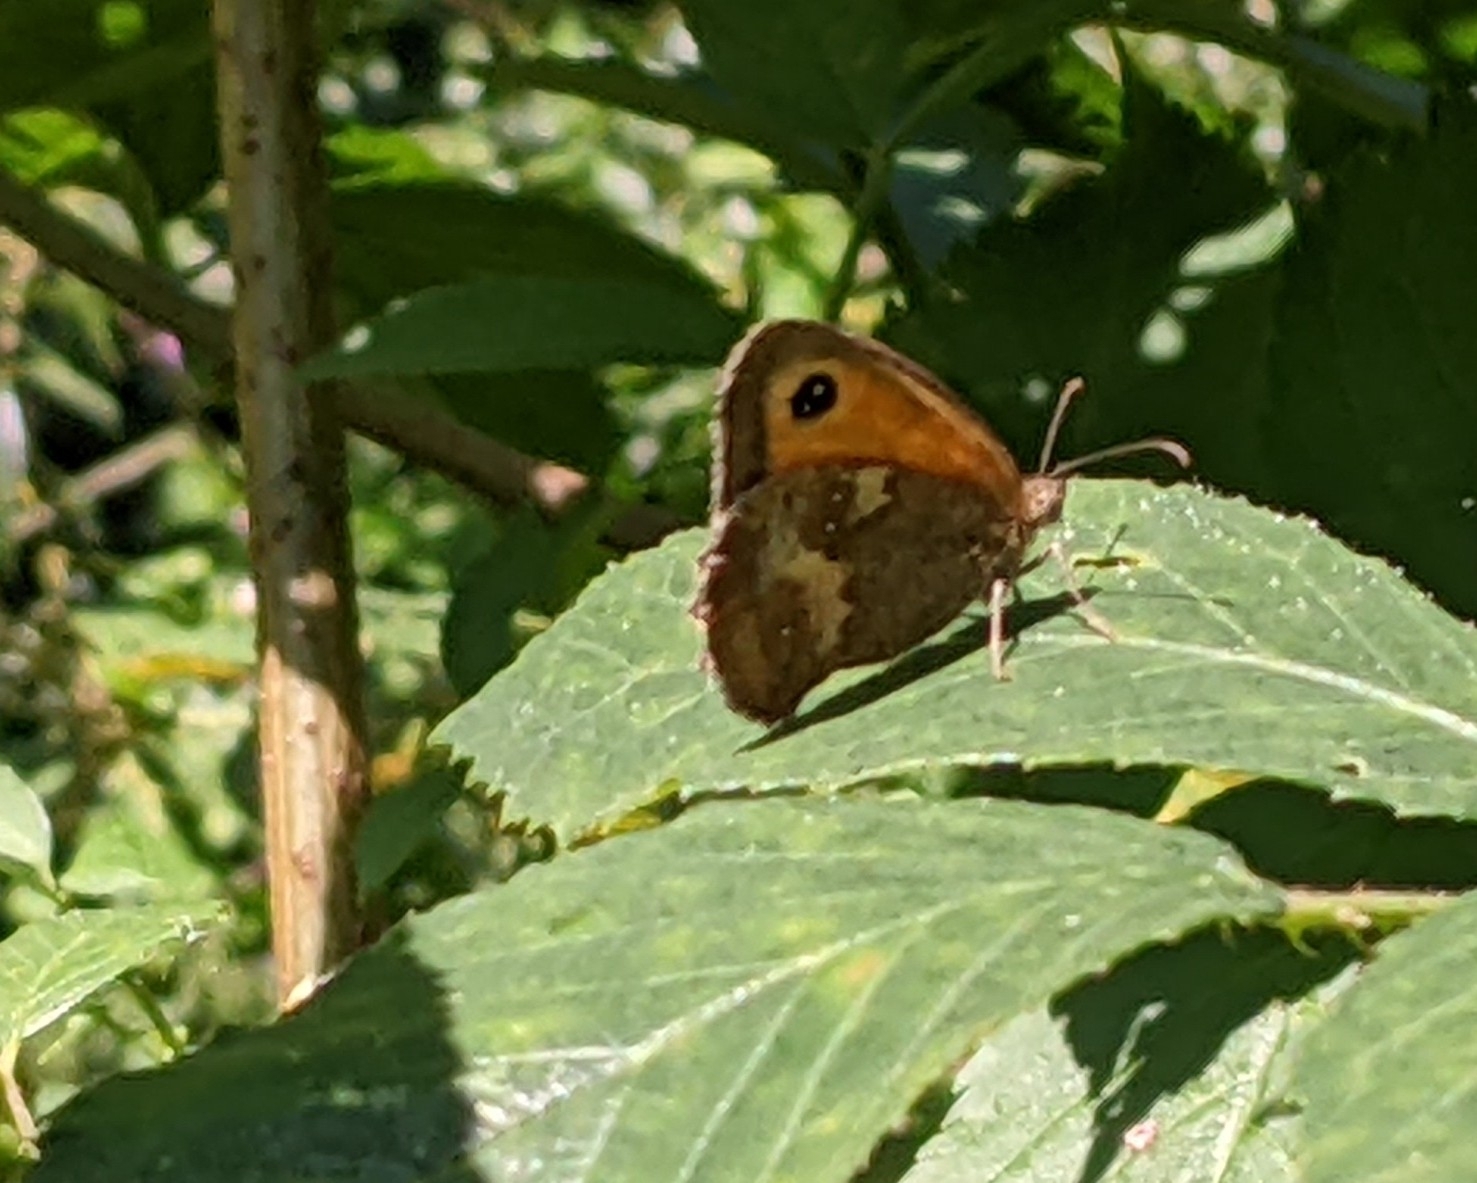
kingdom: Animalia
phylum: Arthropoda
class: Insecta
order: Lepidoptera
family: Nymphalidae
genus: Pyronia
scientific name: Pyronia tithonus
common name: Gatekeeper
